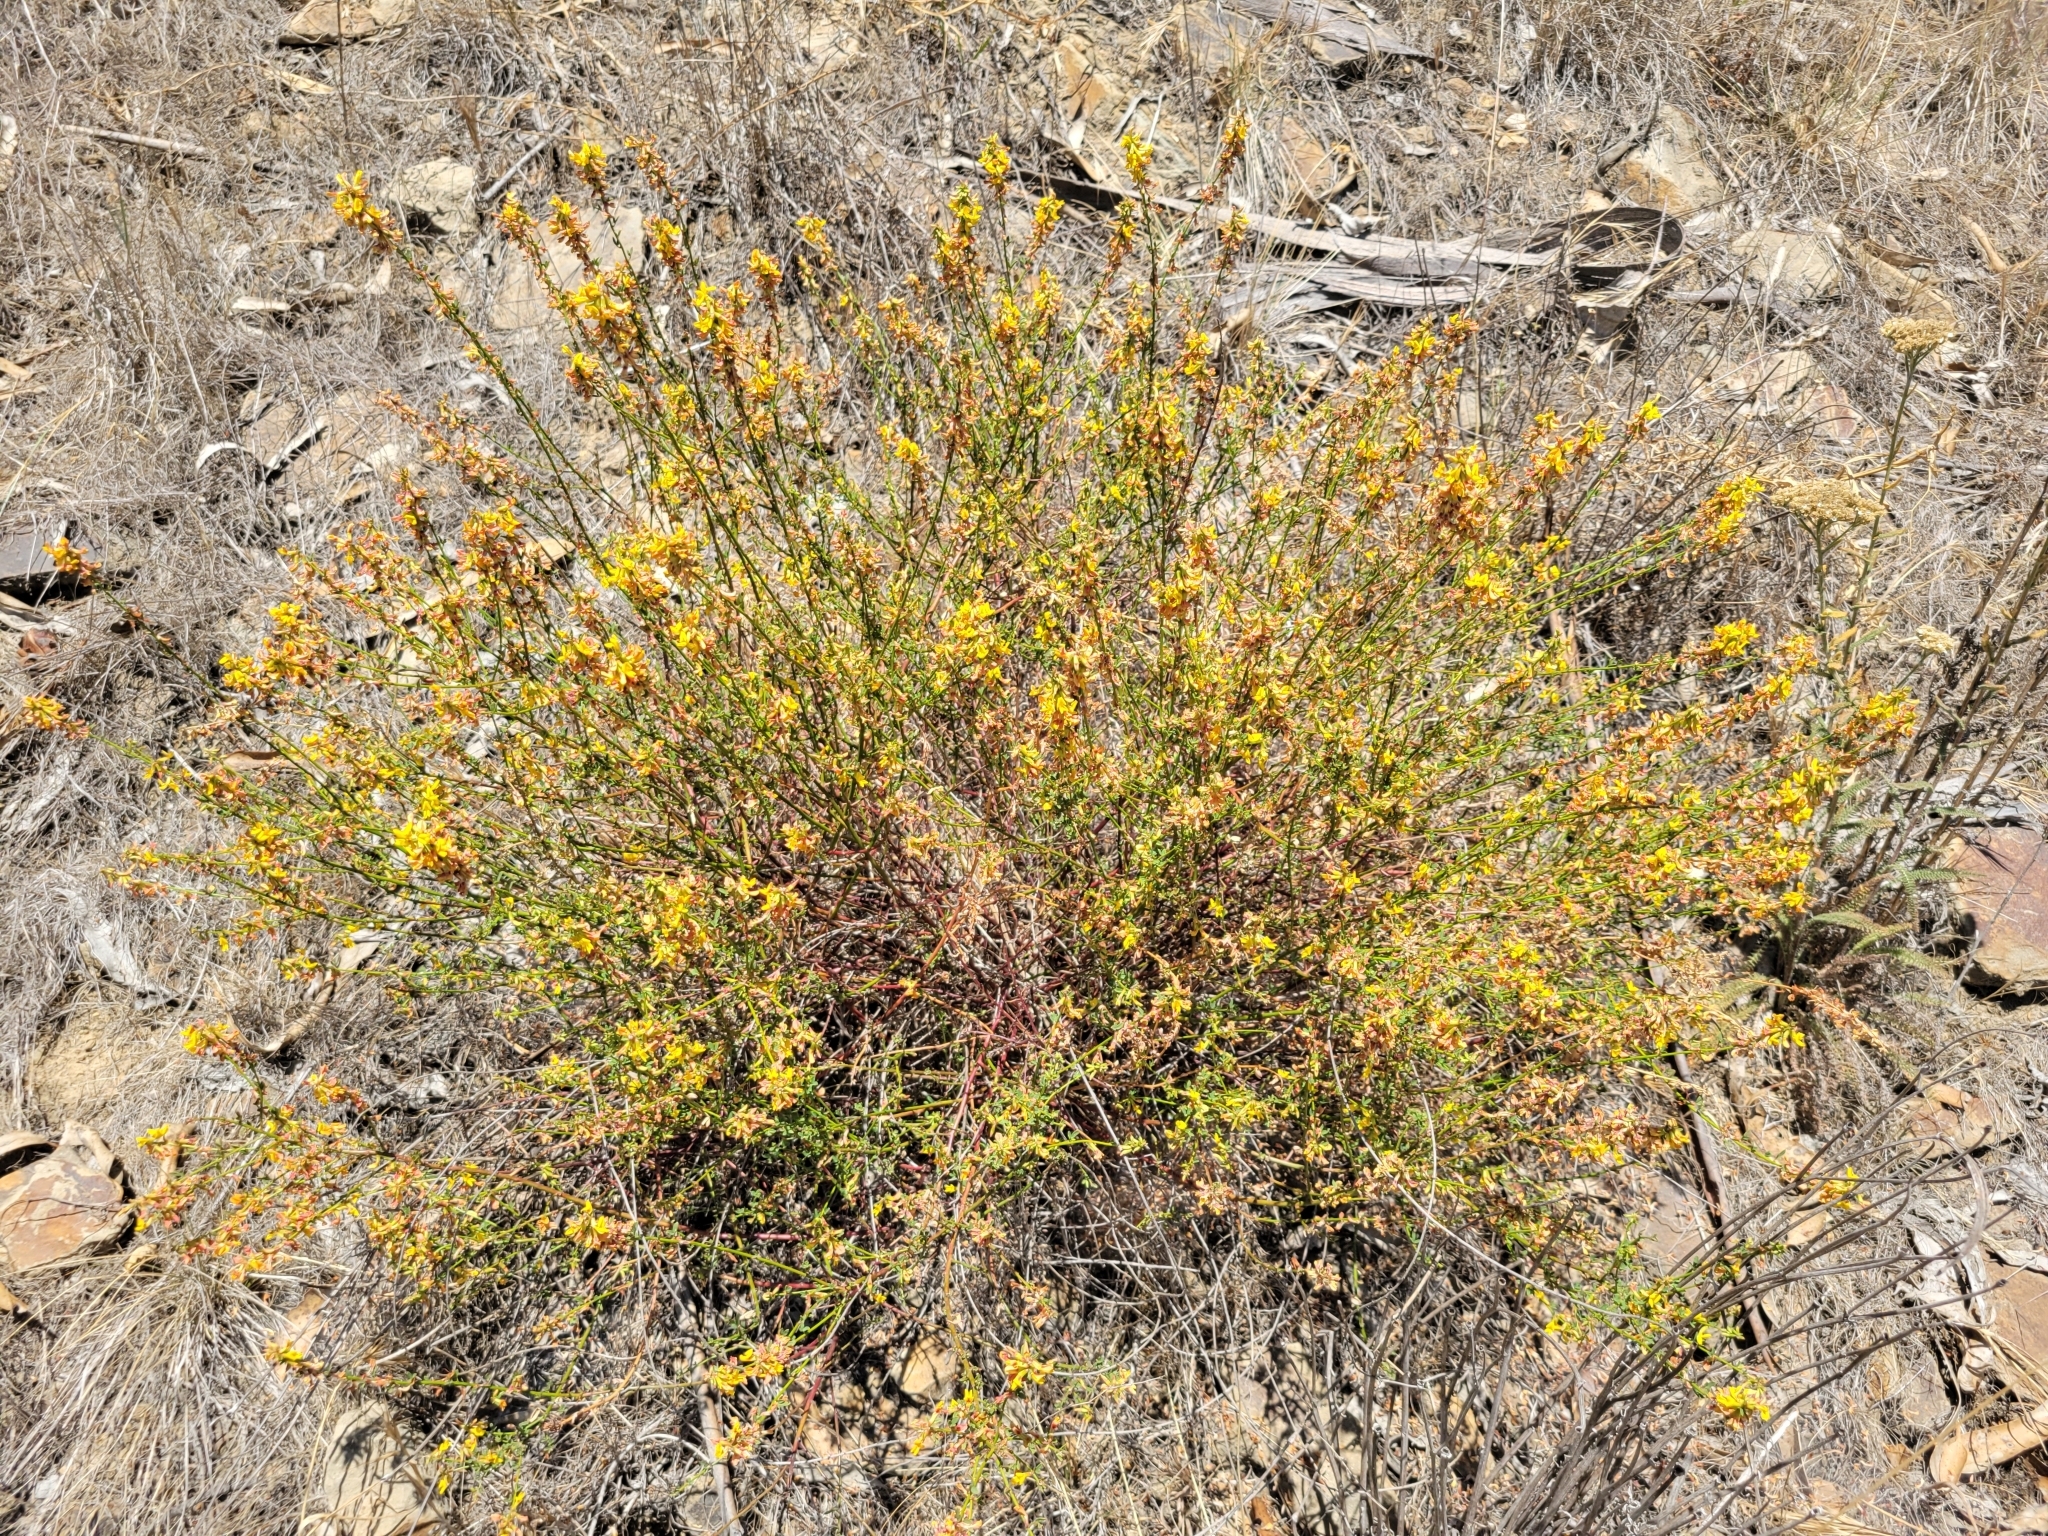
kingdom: Plantae
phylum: Tracheophyta
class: Magnoliopsida
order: Fabales
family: Fabaceae
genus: Acmispon
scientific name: Acmispon glaber
